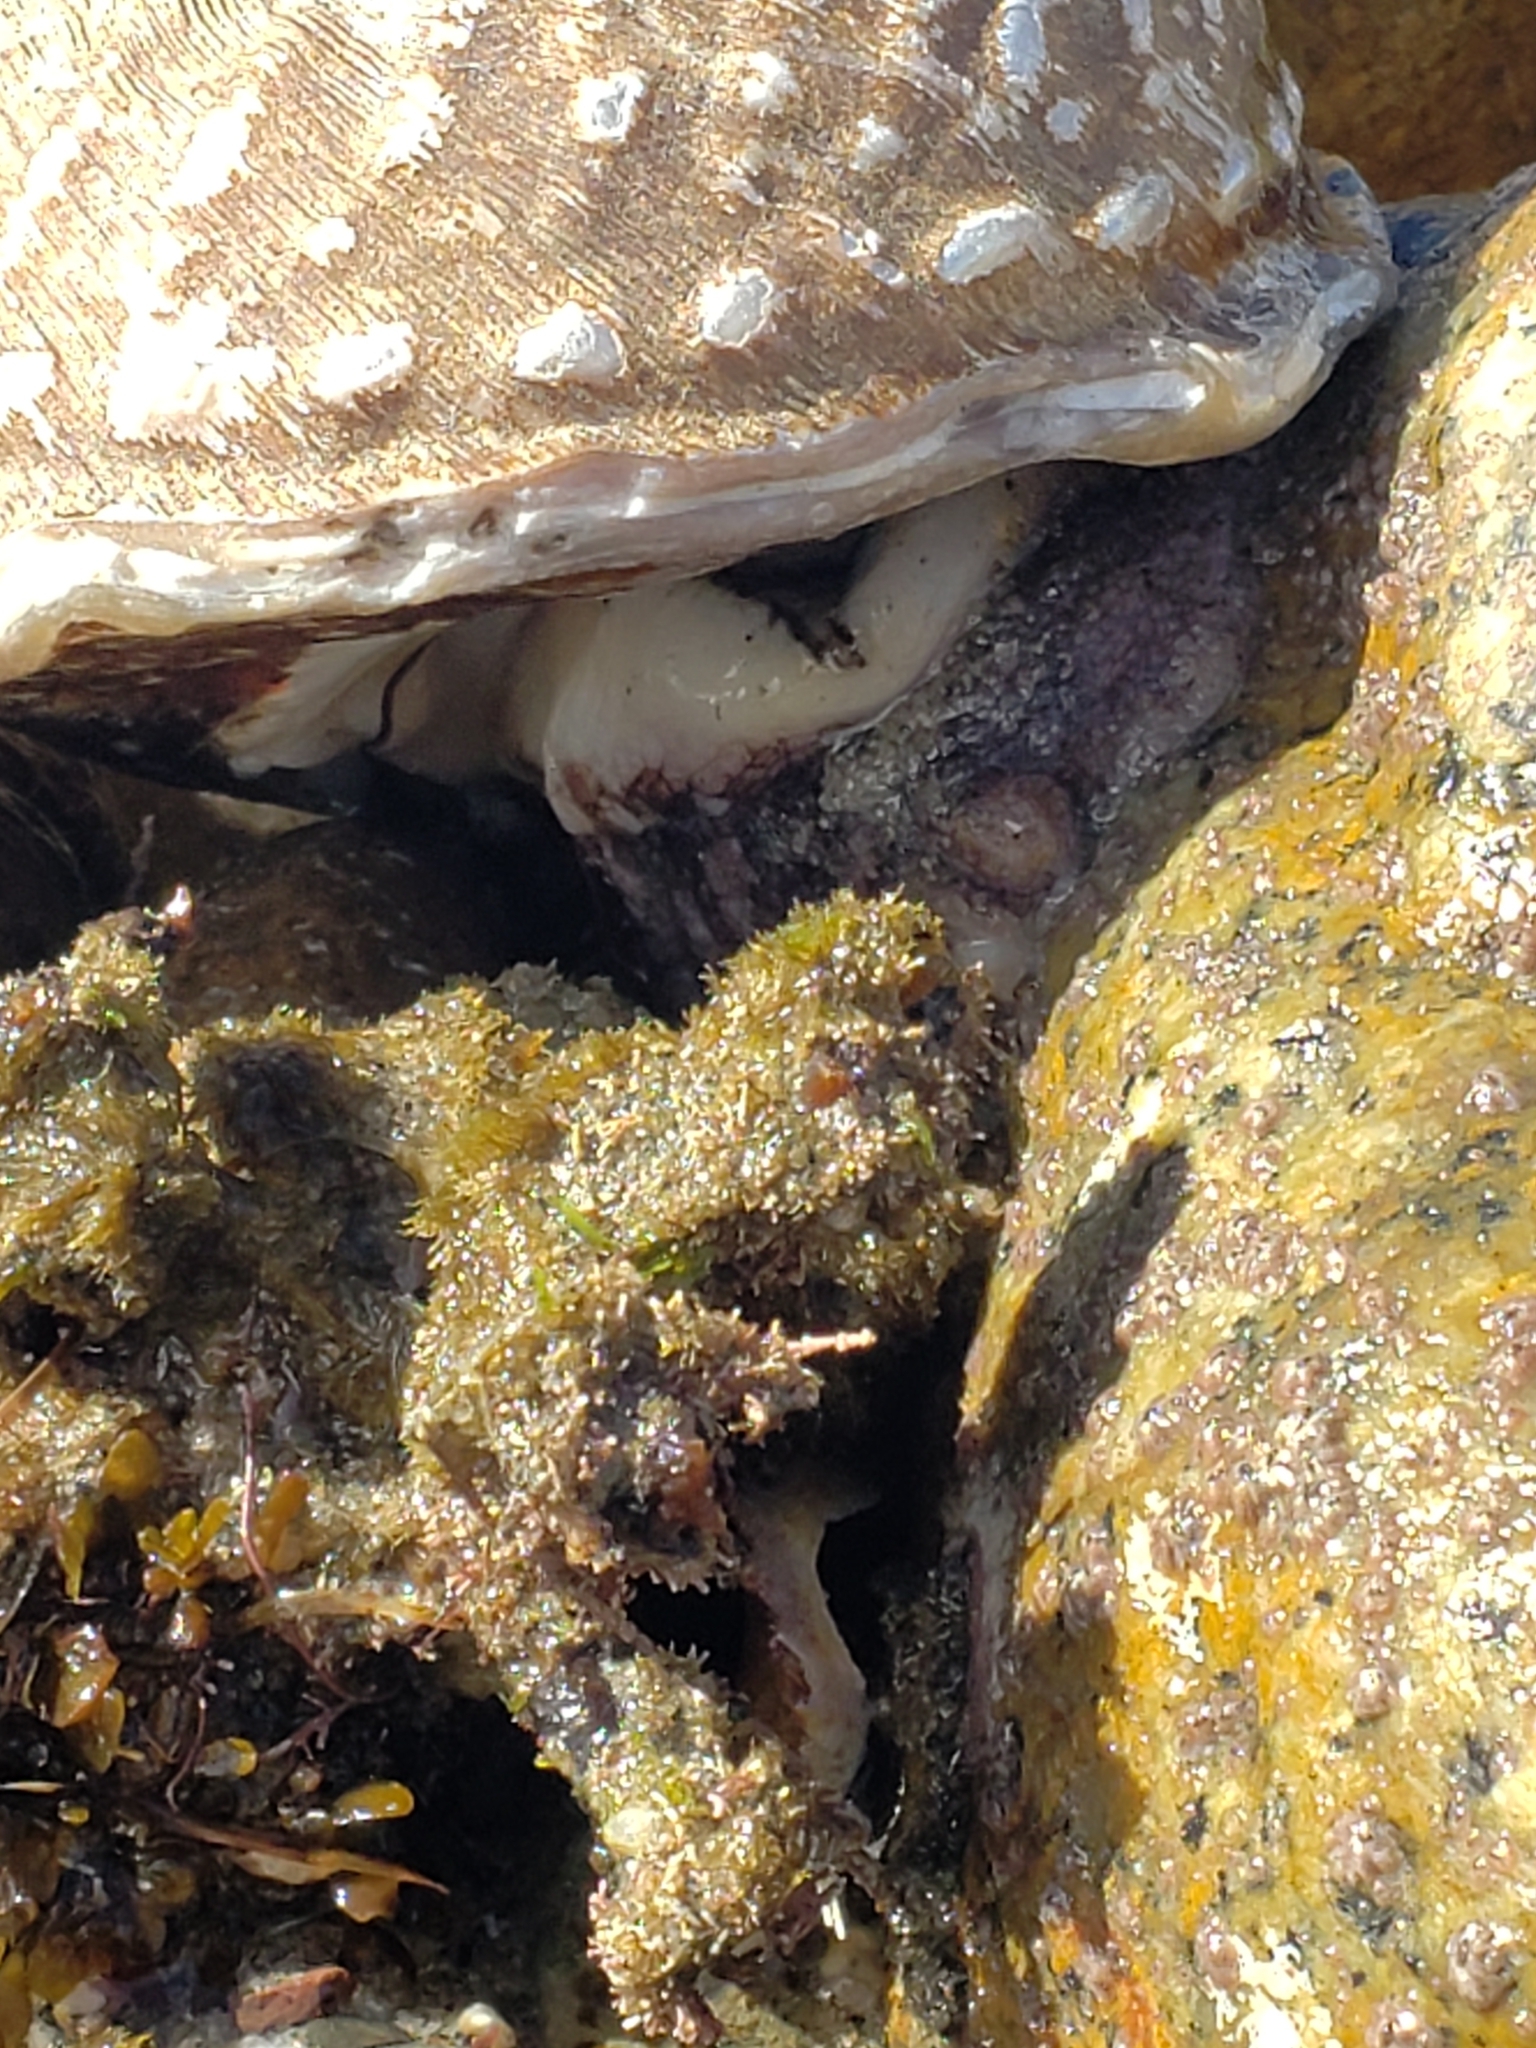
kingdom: Animalia
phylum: Mollusca
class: Gastropoda
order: Trochida
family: Turbinidae
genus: Megastraea
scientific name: Megastraea undosa
